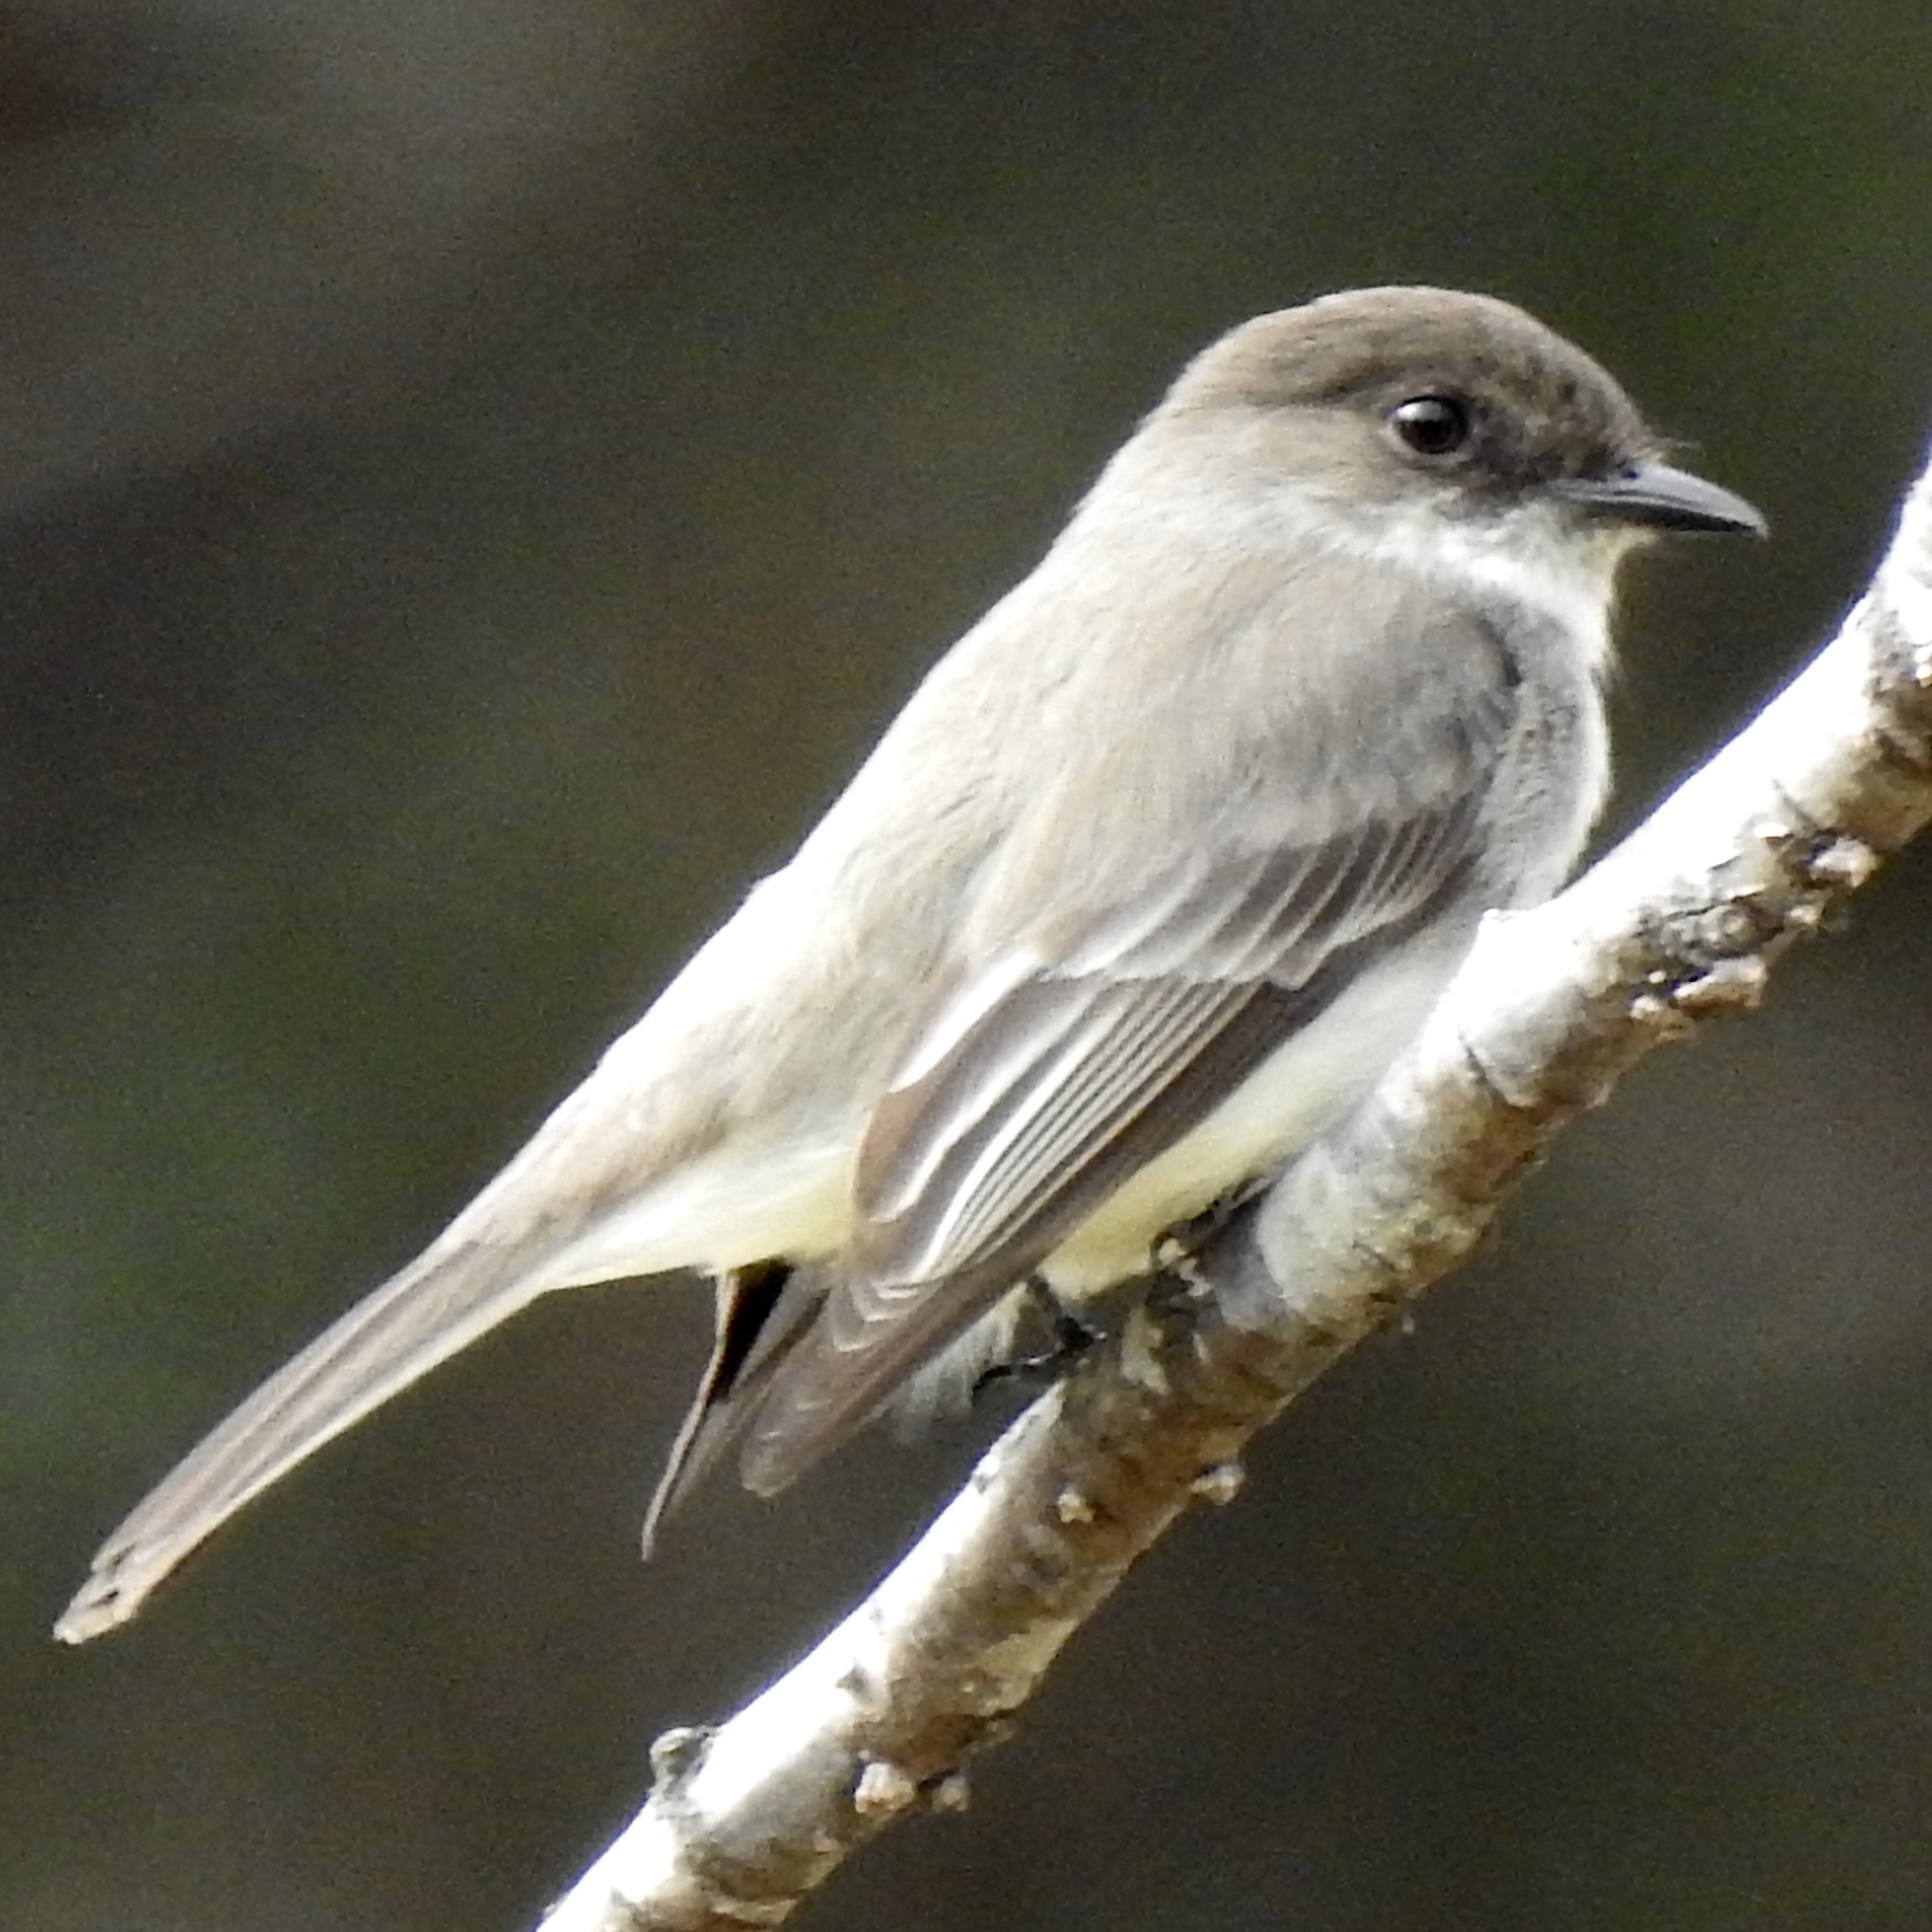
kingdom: Animalia
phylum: Chordata
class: Aves
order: Passeriformes
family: Tyrannidae
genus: Sayornis
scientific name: Sayornis phoebe
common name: Eastern phoebe
